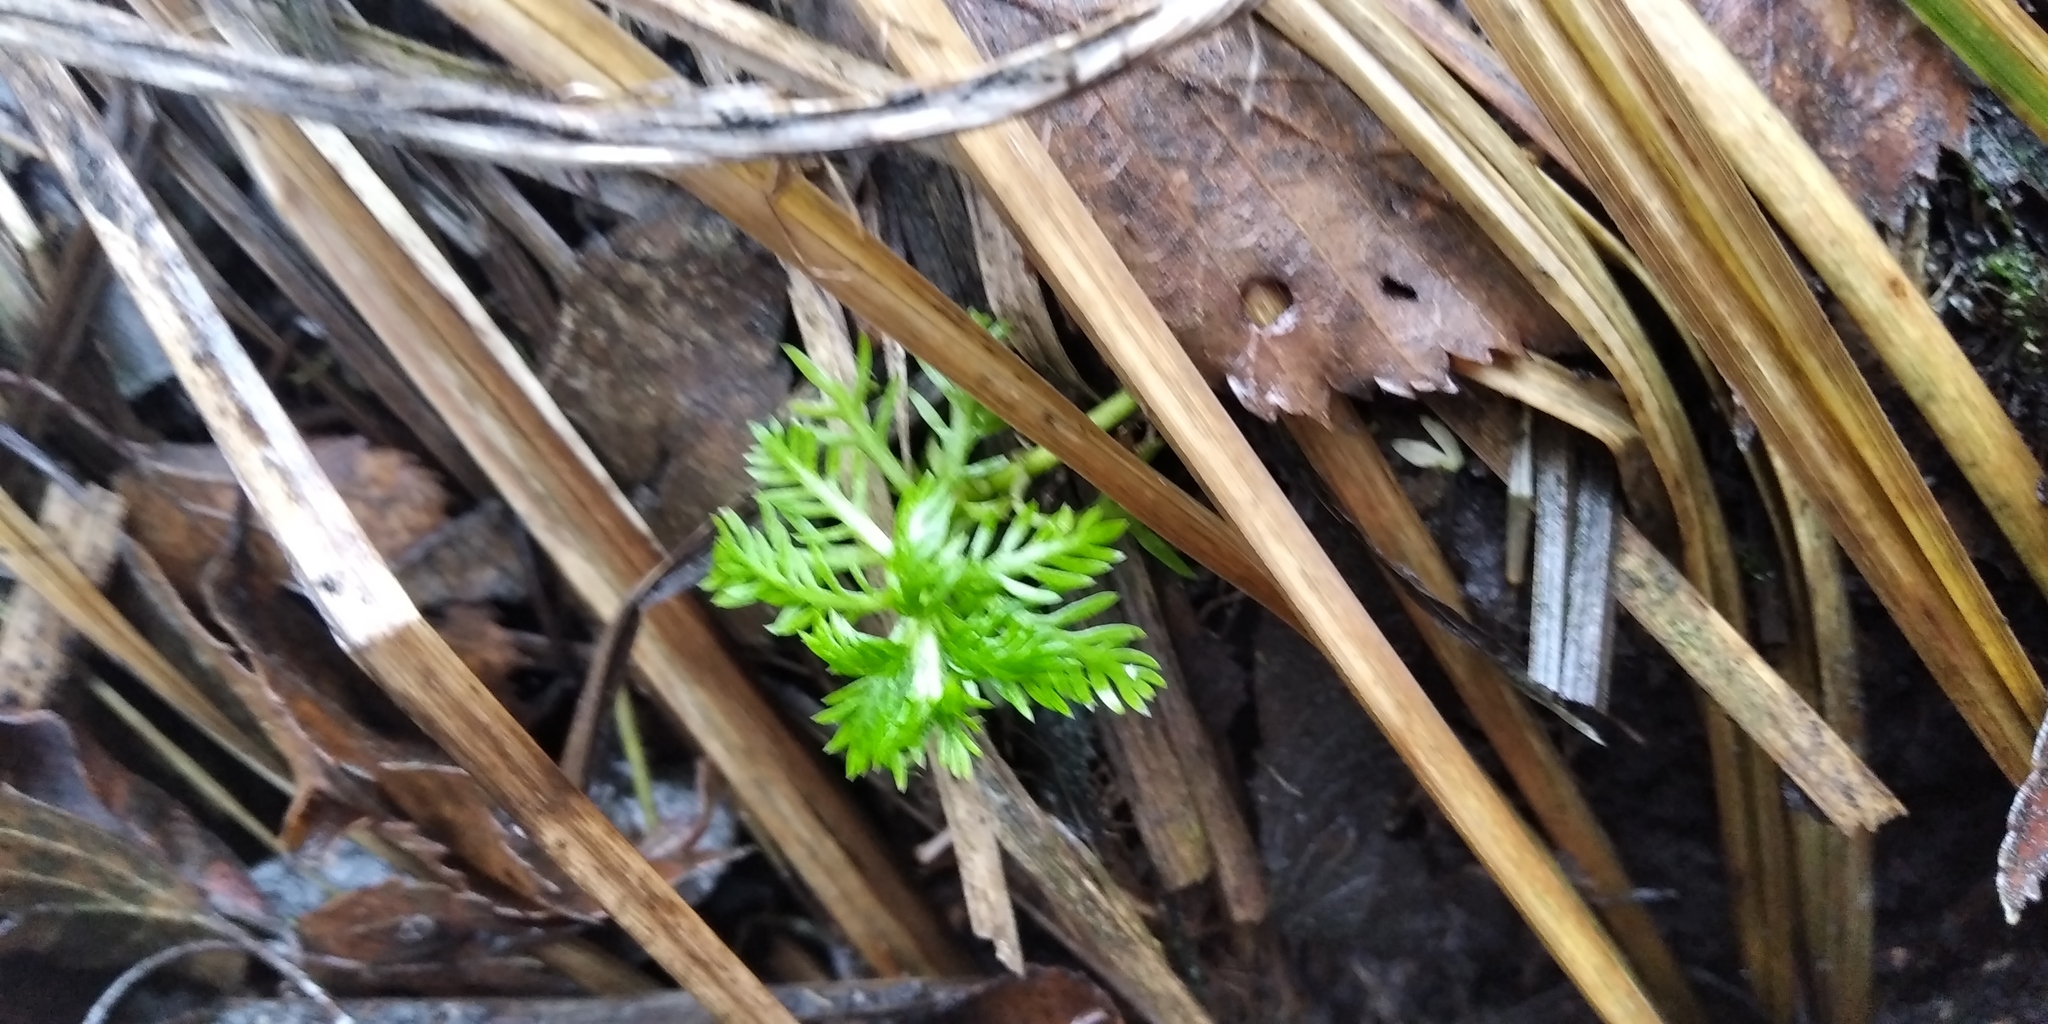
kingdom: Plantae
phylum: Tracheophyta
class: Magnoliopsida
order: Ericales
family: Primulaceae
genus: Hottonia
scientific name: Hottonia palustris
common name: Water-violet
